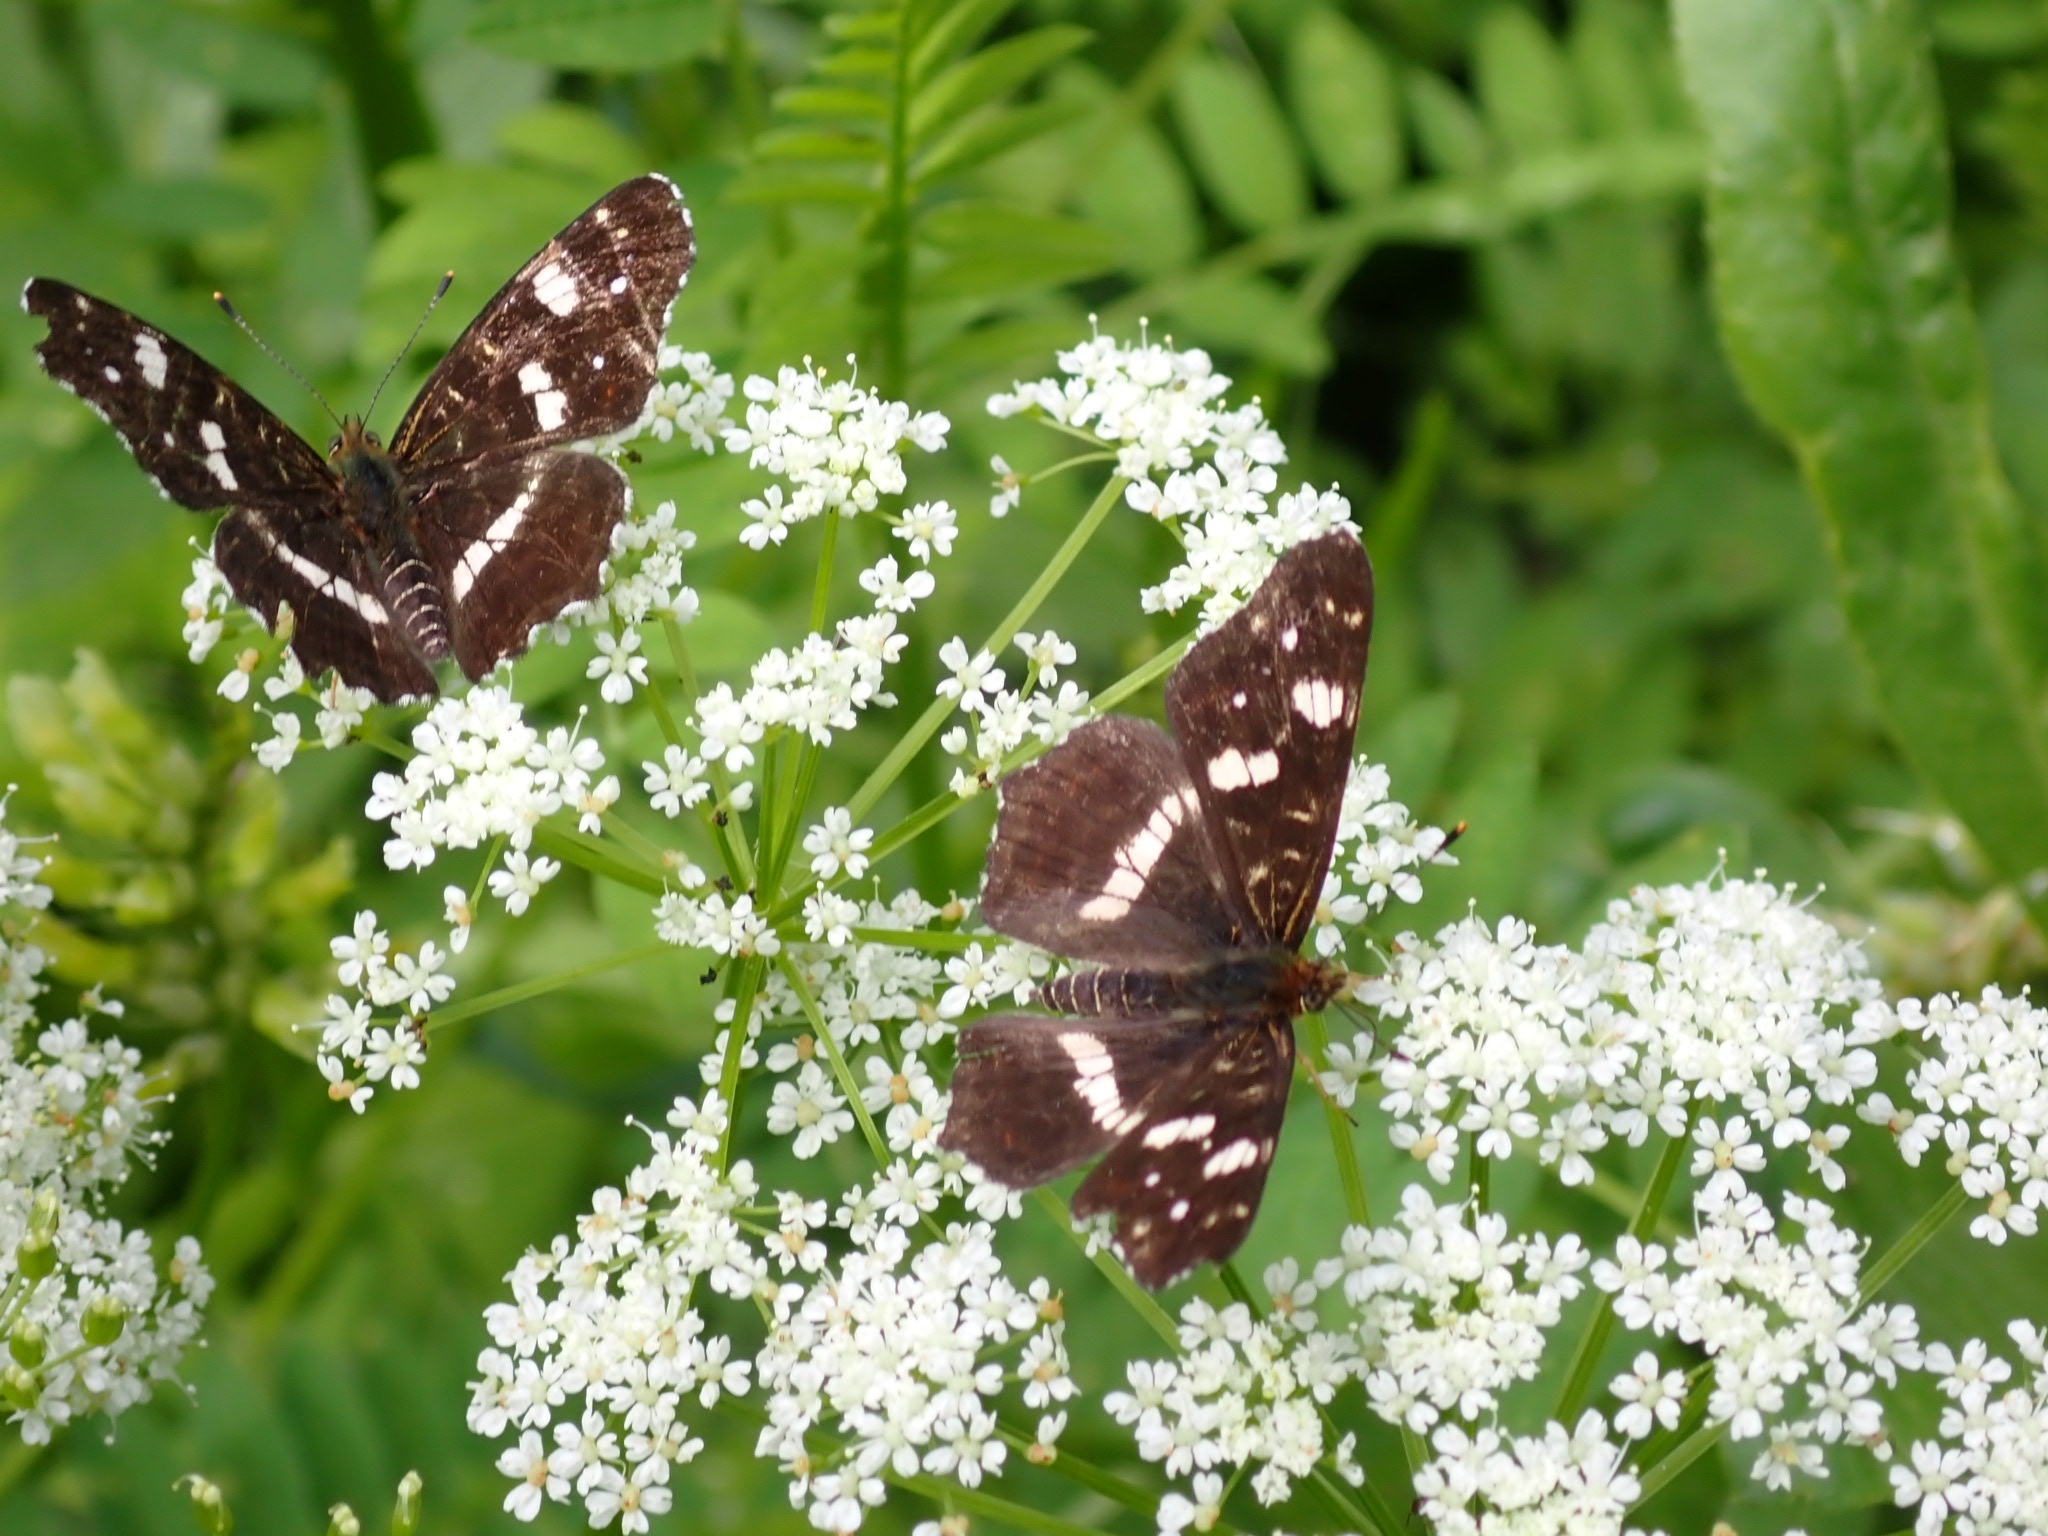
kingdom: Animalia
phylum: Arthropoda
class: Insecta
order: Lepidoptera
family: Nymphalidae
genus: Araschnia
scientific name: Araschnia levana
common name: Map butterfly
